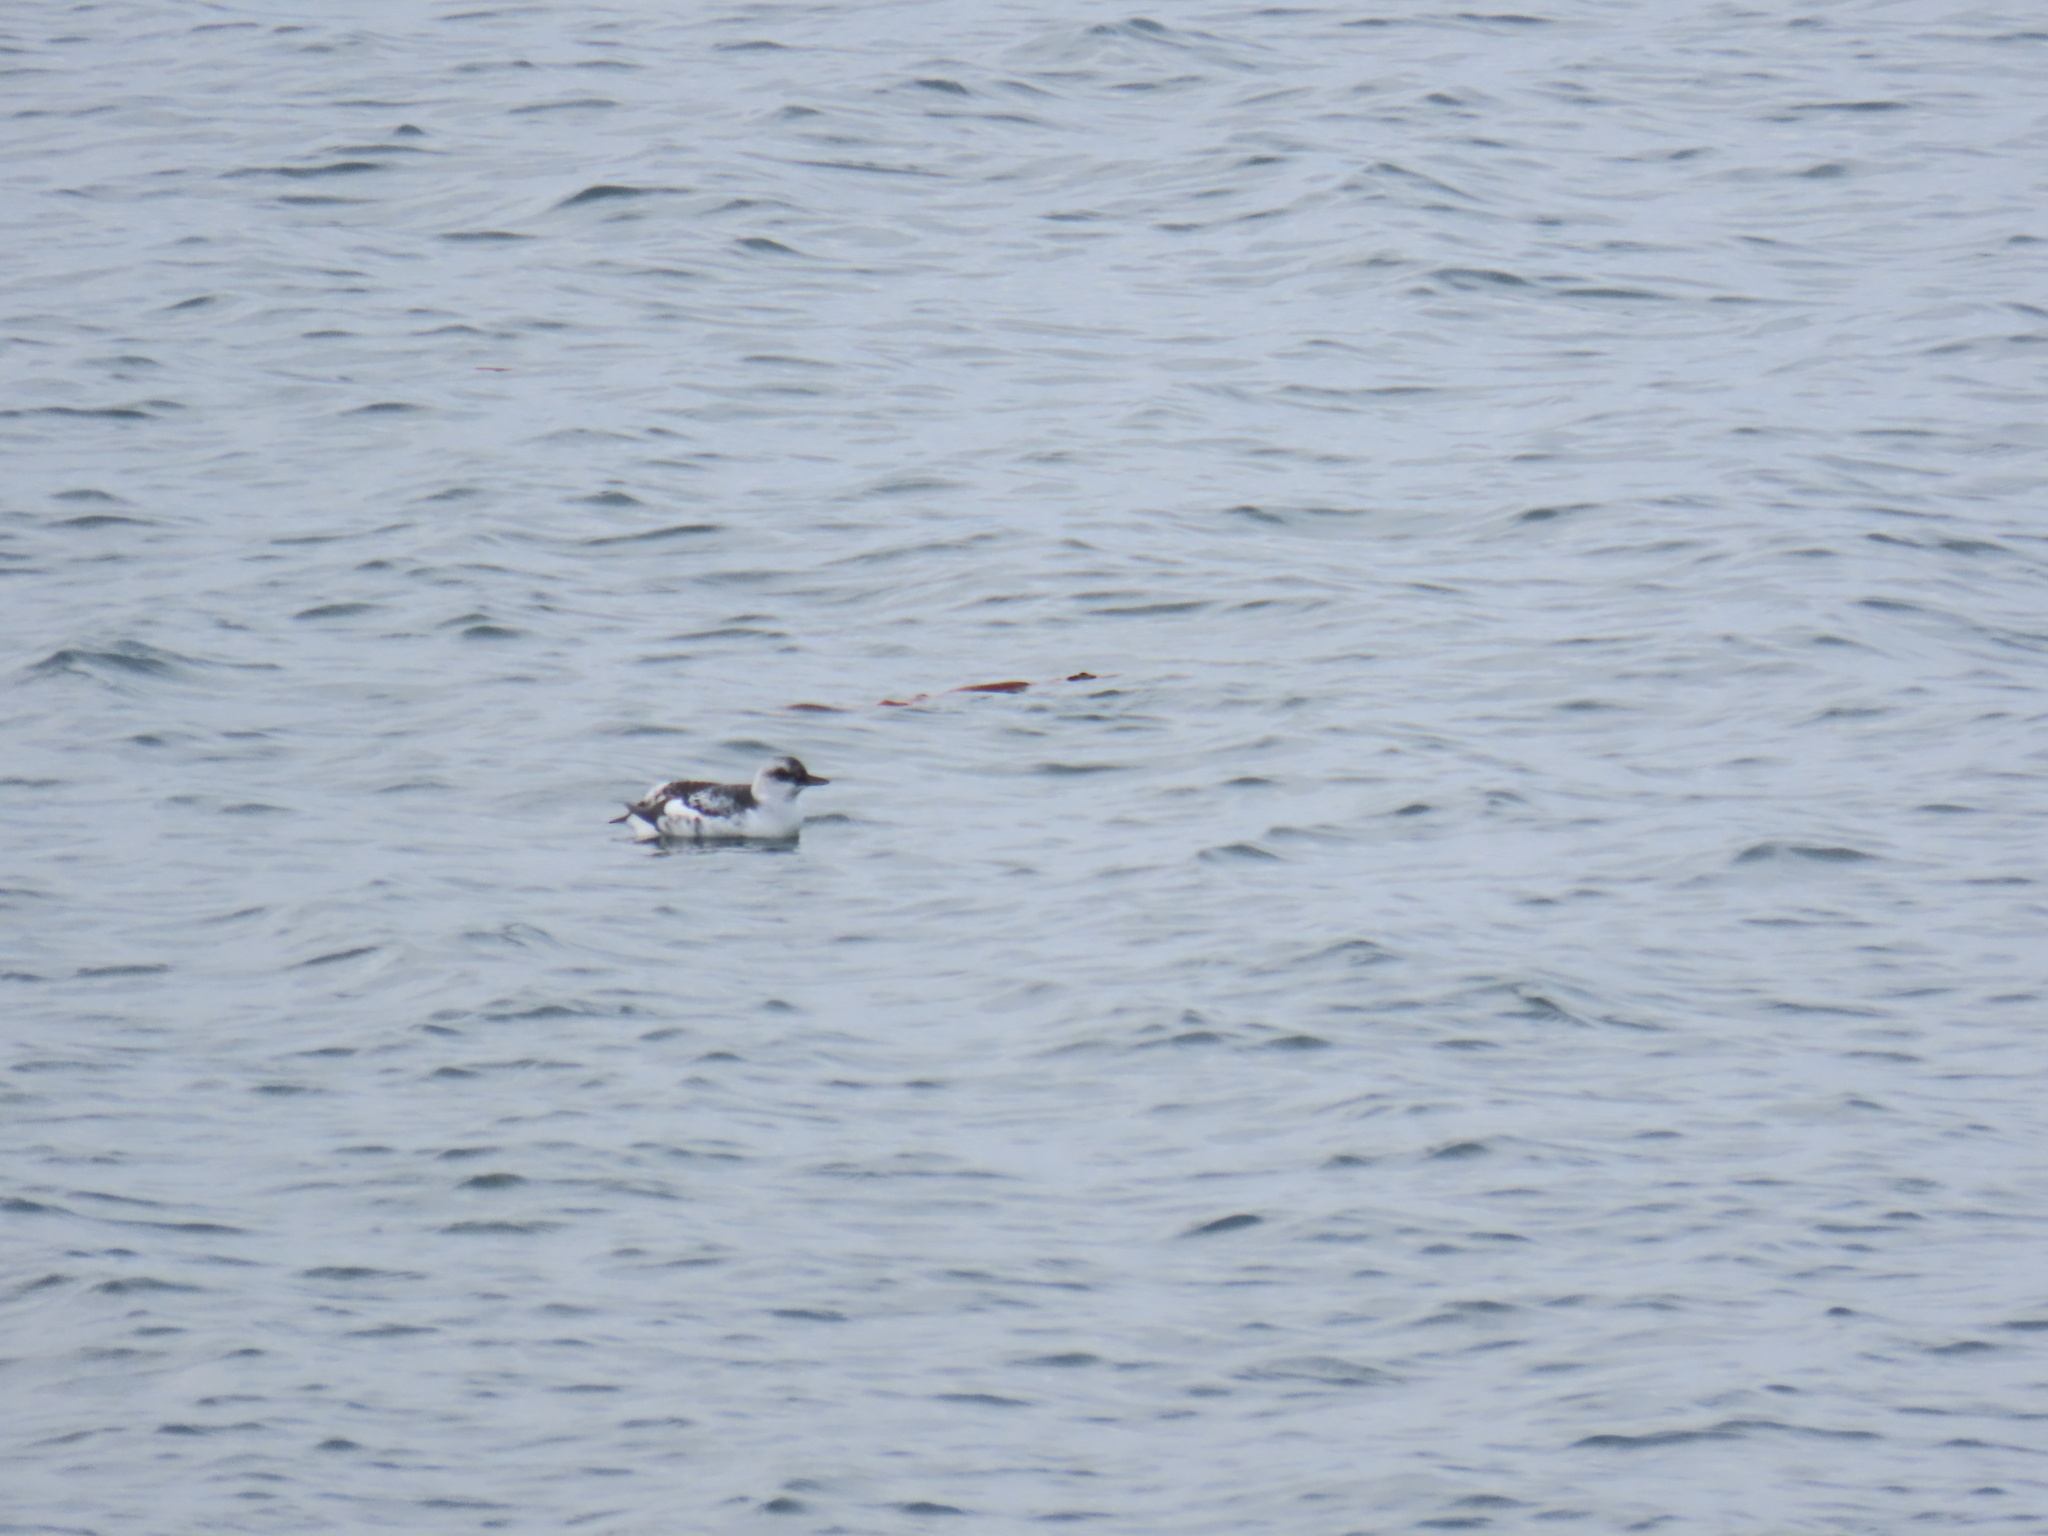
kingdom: Animalia
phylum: Chordata
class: Aves
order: Charadriiformes
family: Alcidae
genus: Cepphus
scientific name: Cepphus columba
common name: Pigeon guillemot
